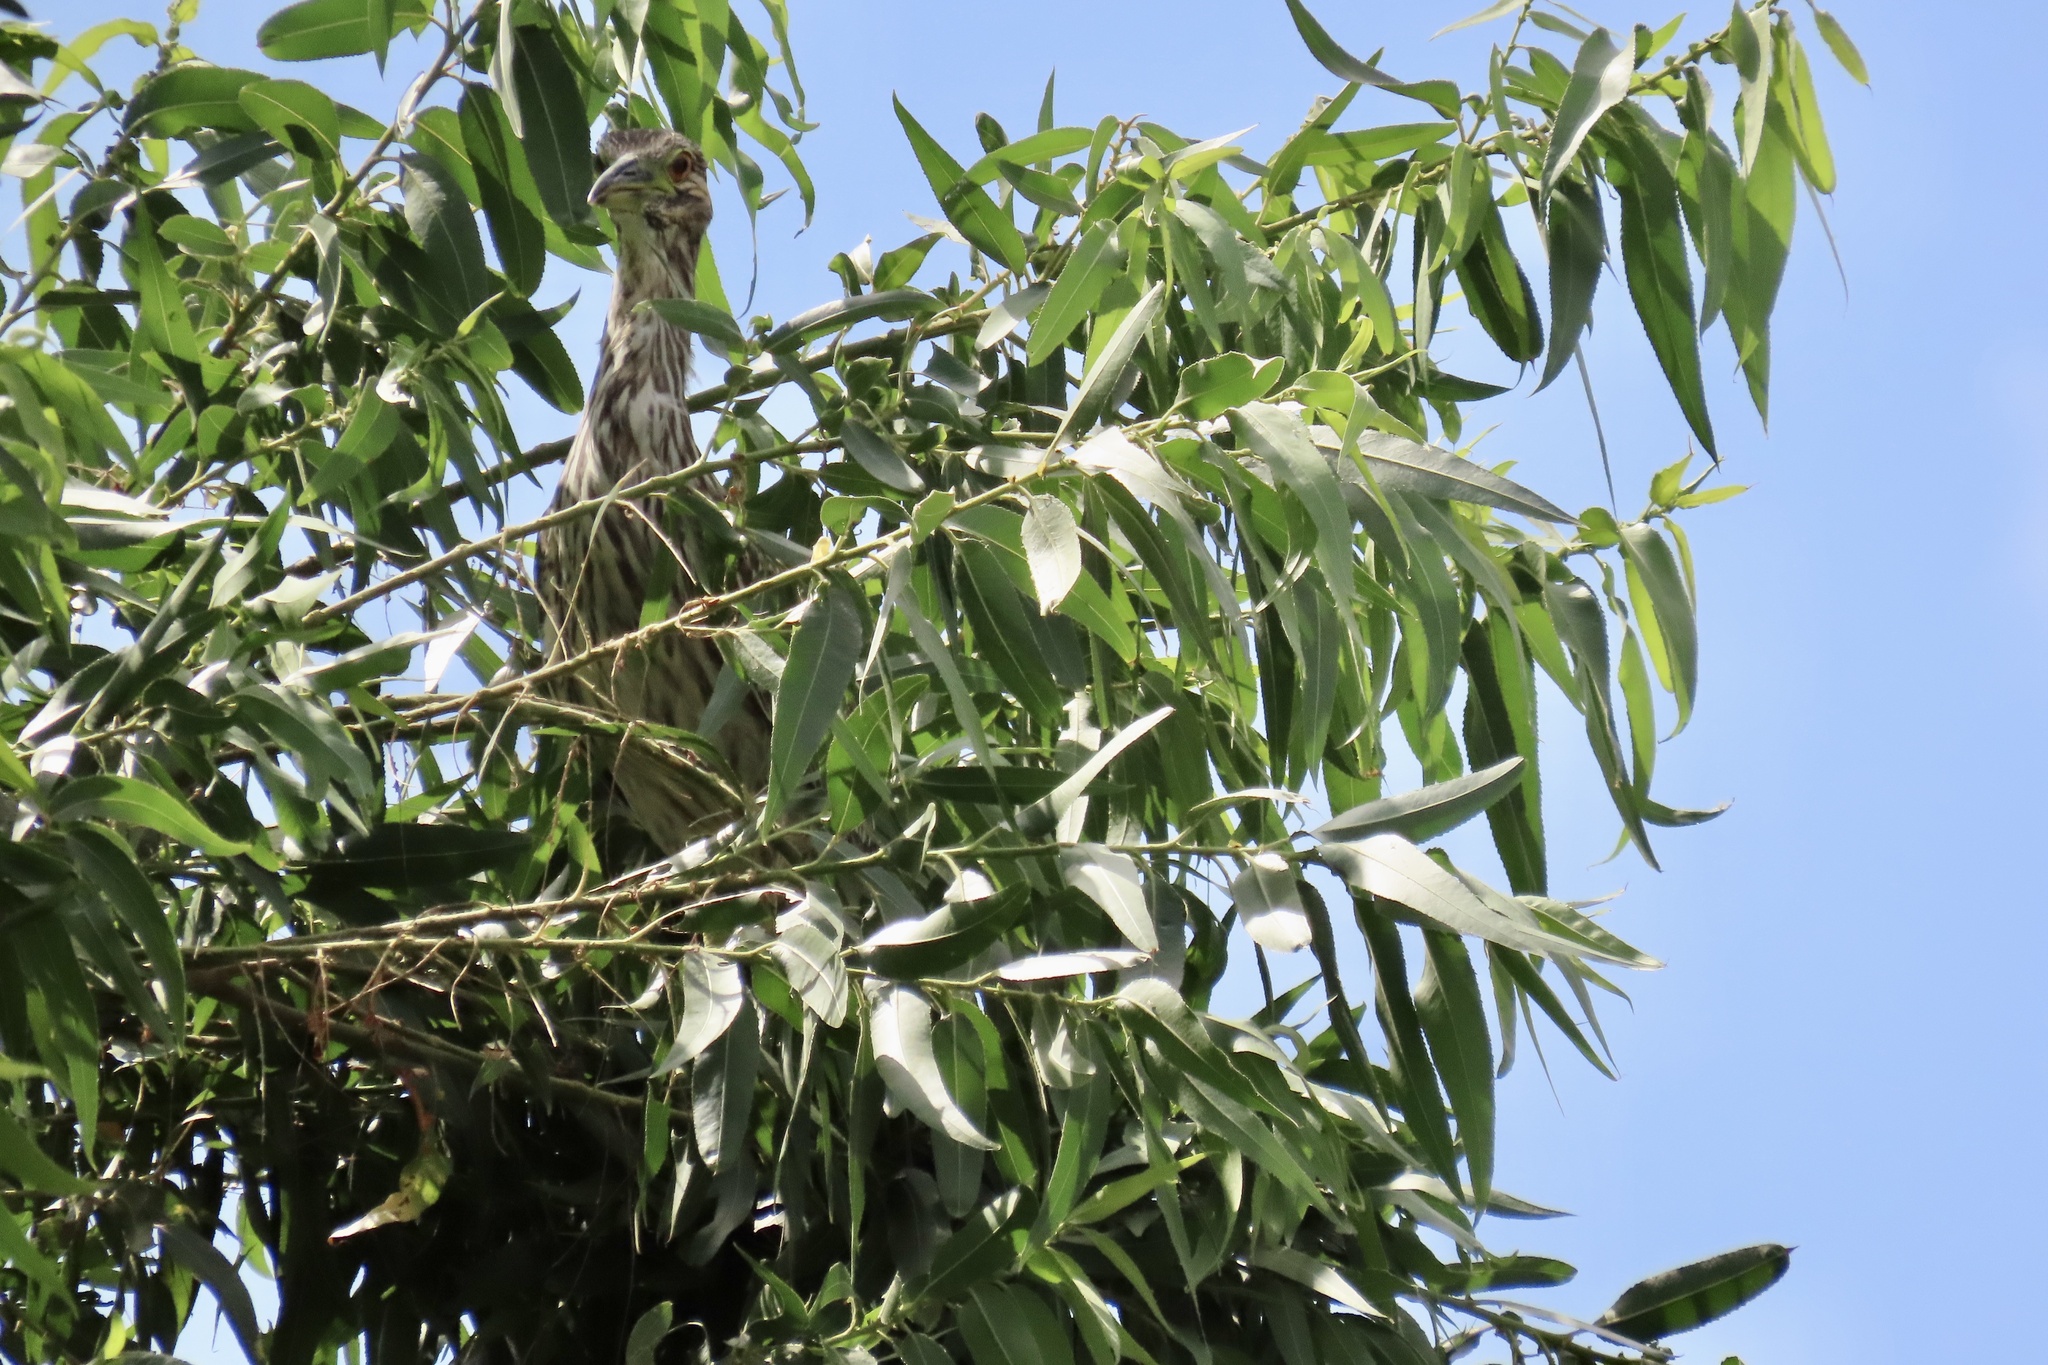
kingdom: Animalia
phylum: Chordata
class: Aves
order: Pelecaniformes
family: Ardeidae
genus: Nycticorax
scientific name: Nycticorax nycticorax
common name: Black-crowned night heron
